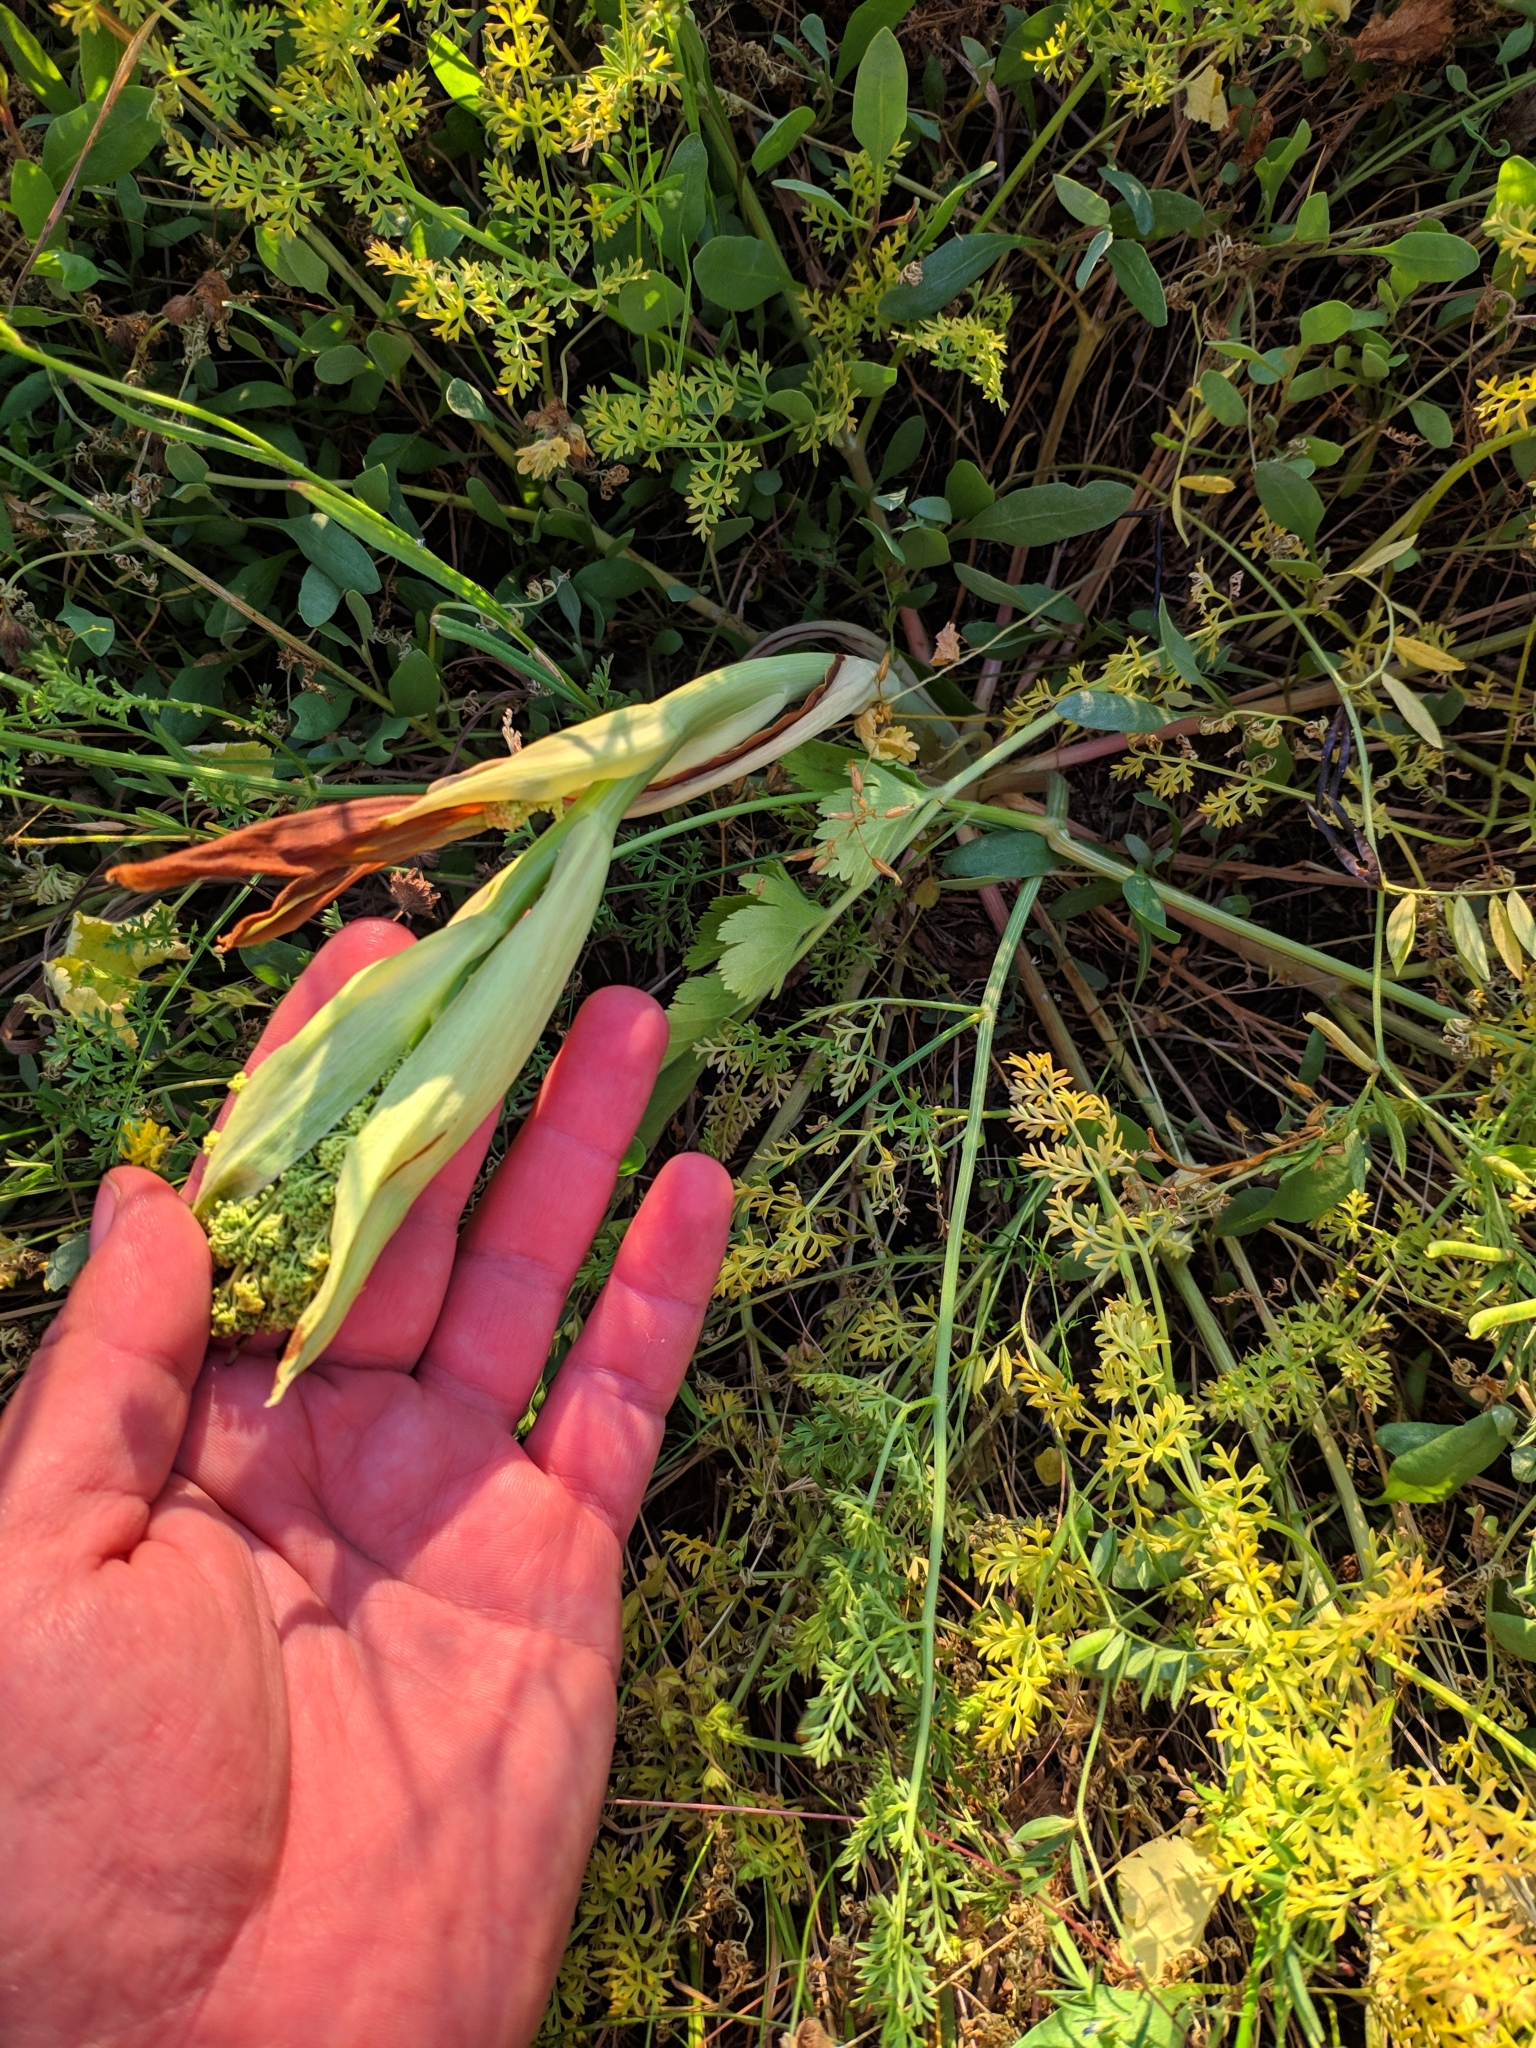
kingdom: Plantae
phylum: Tracheophyta
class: Magnoliopsida
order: Apiales
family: Apiaceae
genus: Ferula
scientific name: Ferula euxina
